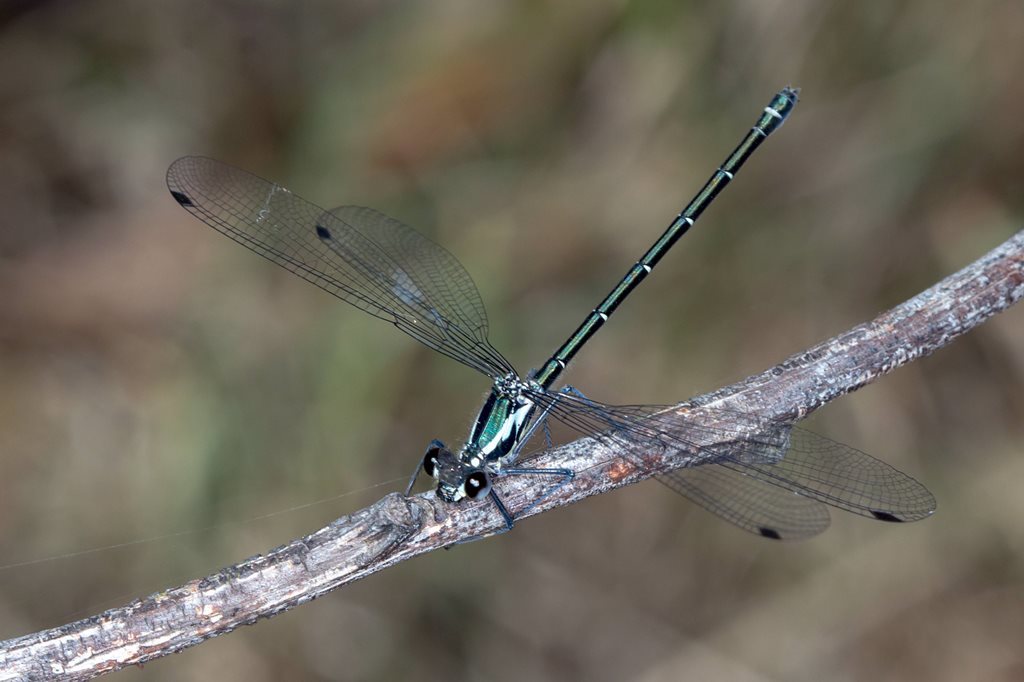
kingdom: Animalia
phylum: Arthropoda
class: Insecta
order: Odonata
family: Argiolestidae
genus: Austroargiolestes
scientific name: Austroargiolestes icteromelas
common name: Common flatwing
